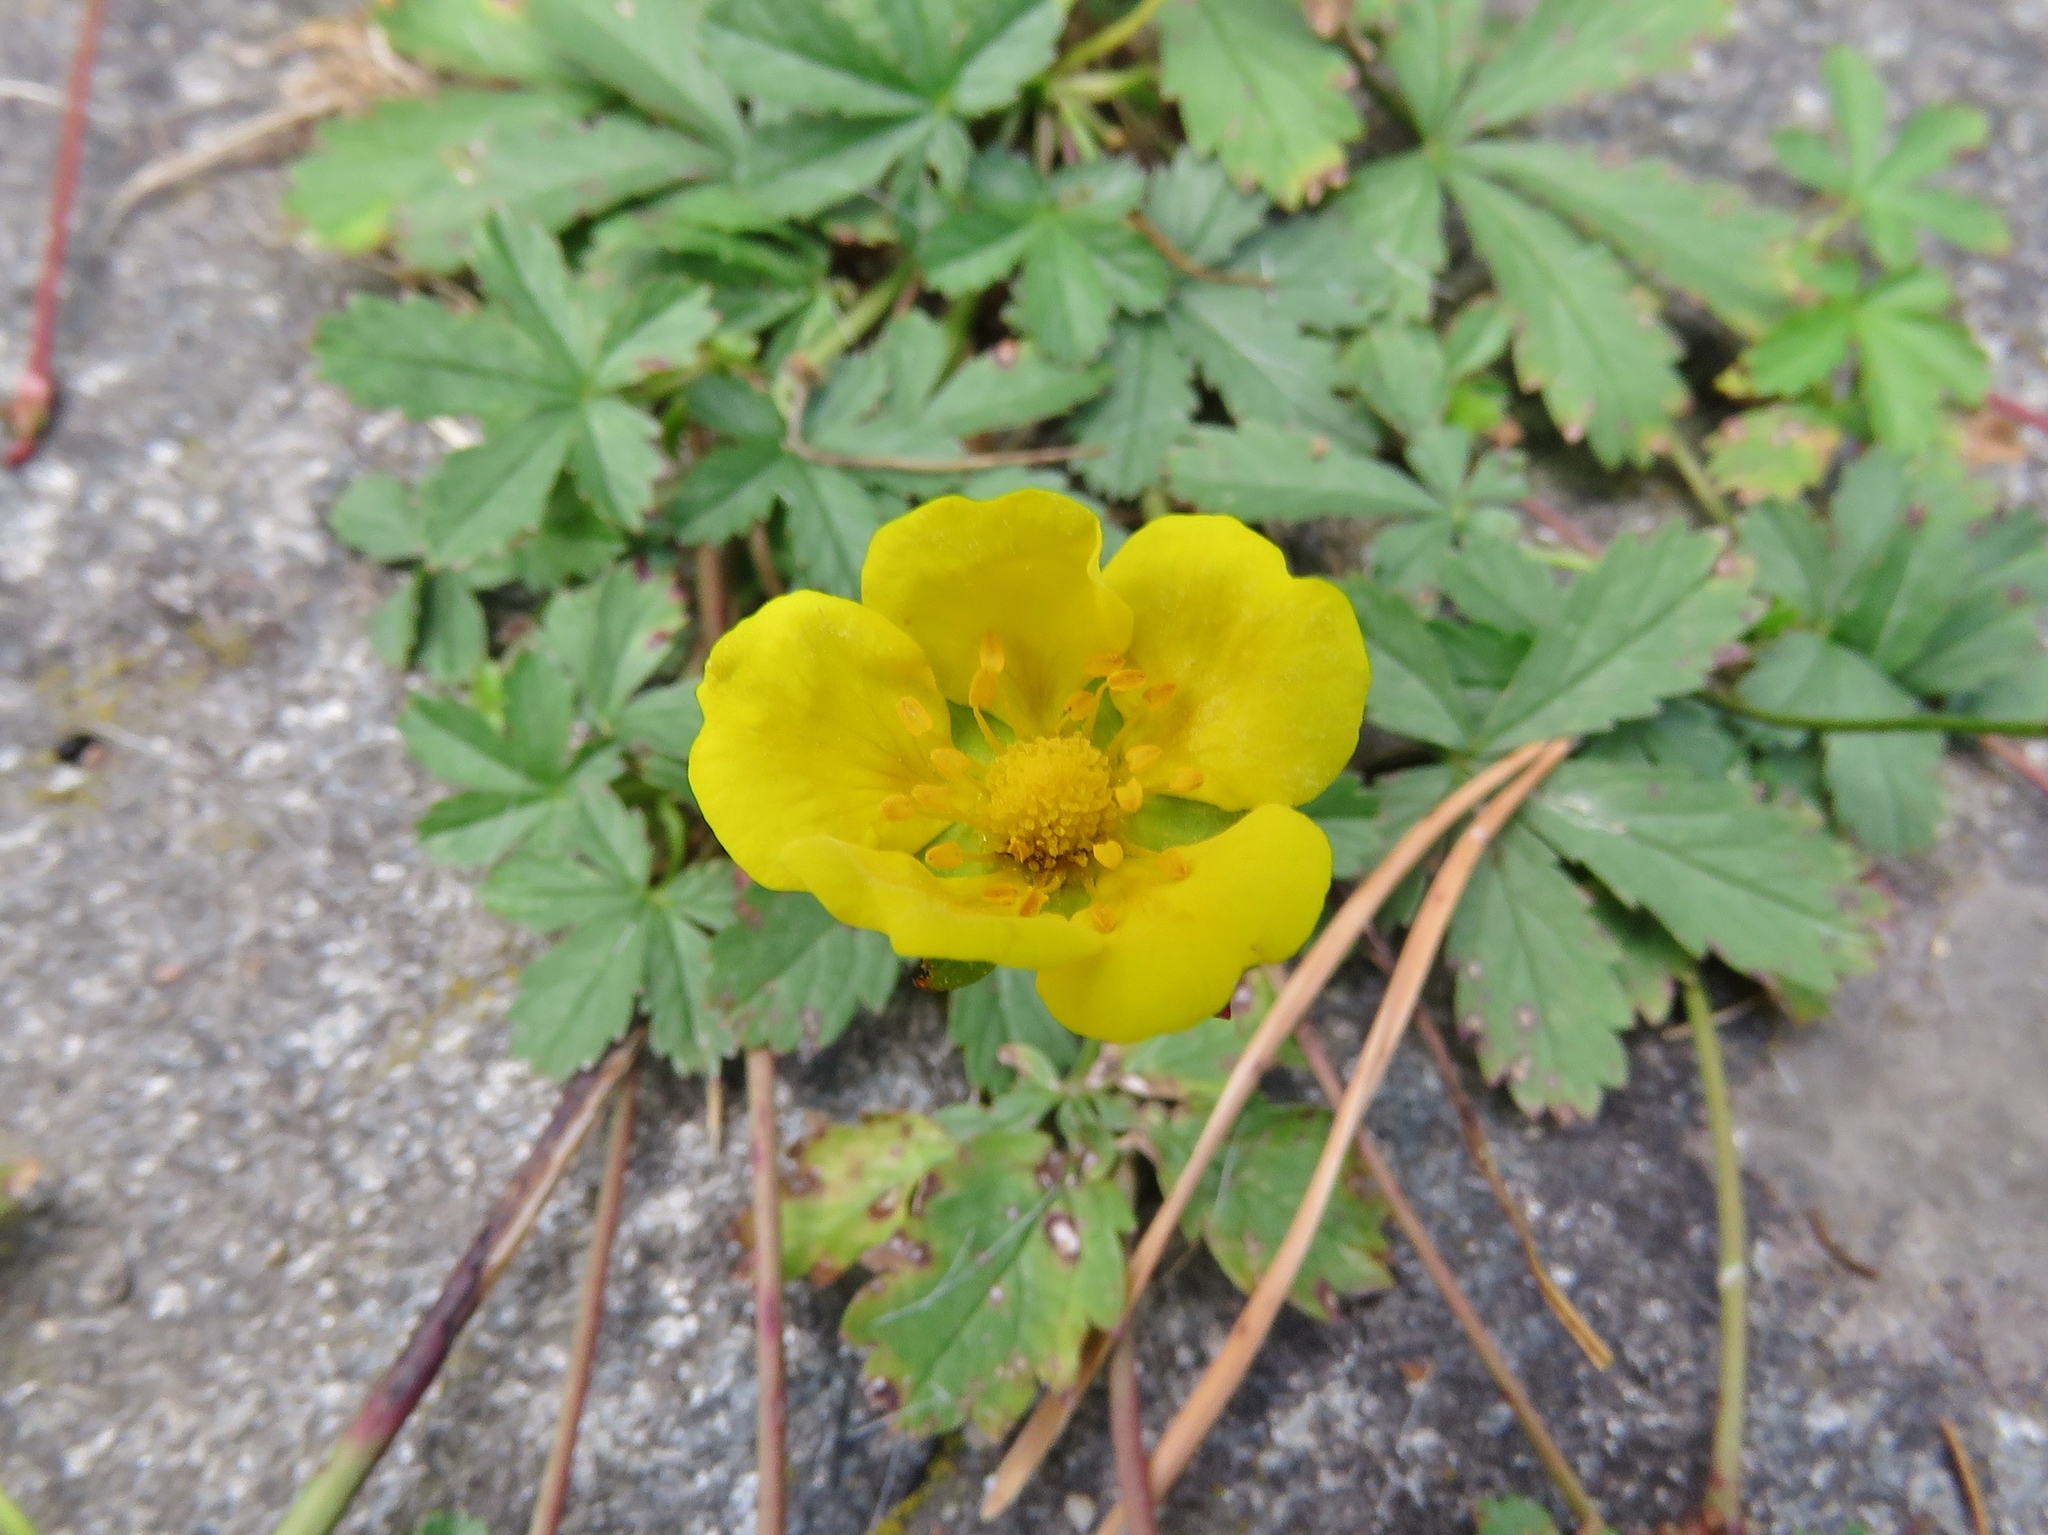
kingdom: Plantae
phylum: Tracheophyta
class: Magnoliopsida
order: Rosales
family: Rosaceae
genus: Potentilla
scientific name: Potentilla reptans
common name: Creeping cinquefoil
